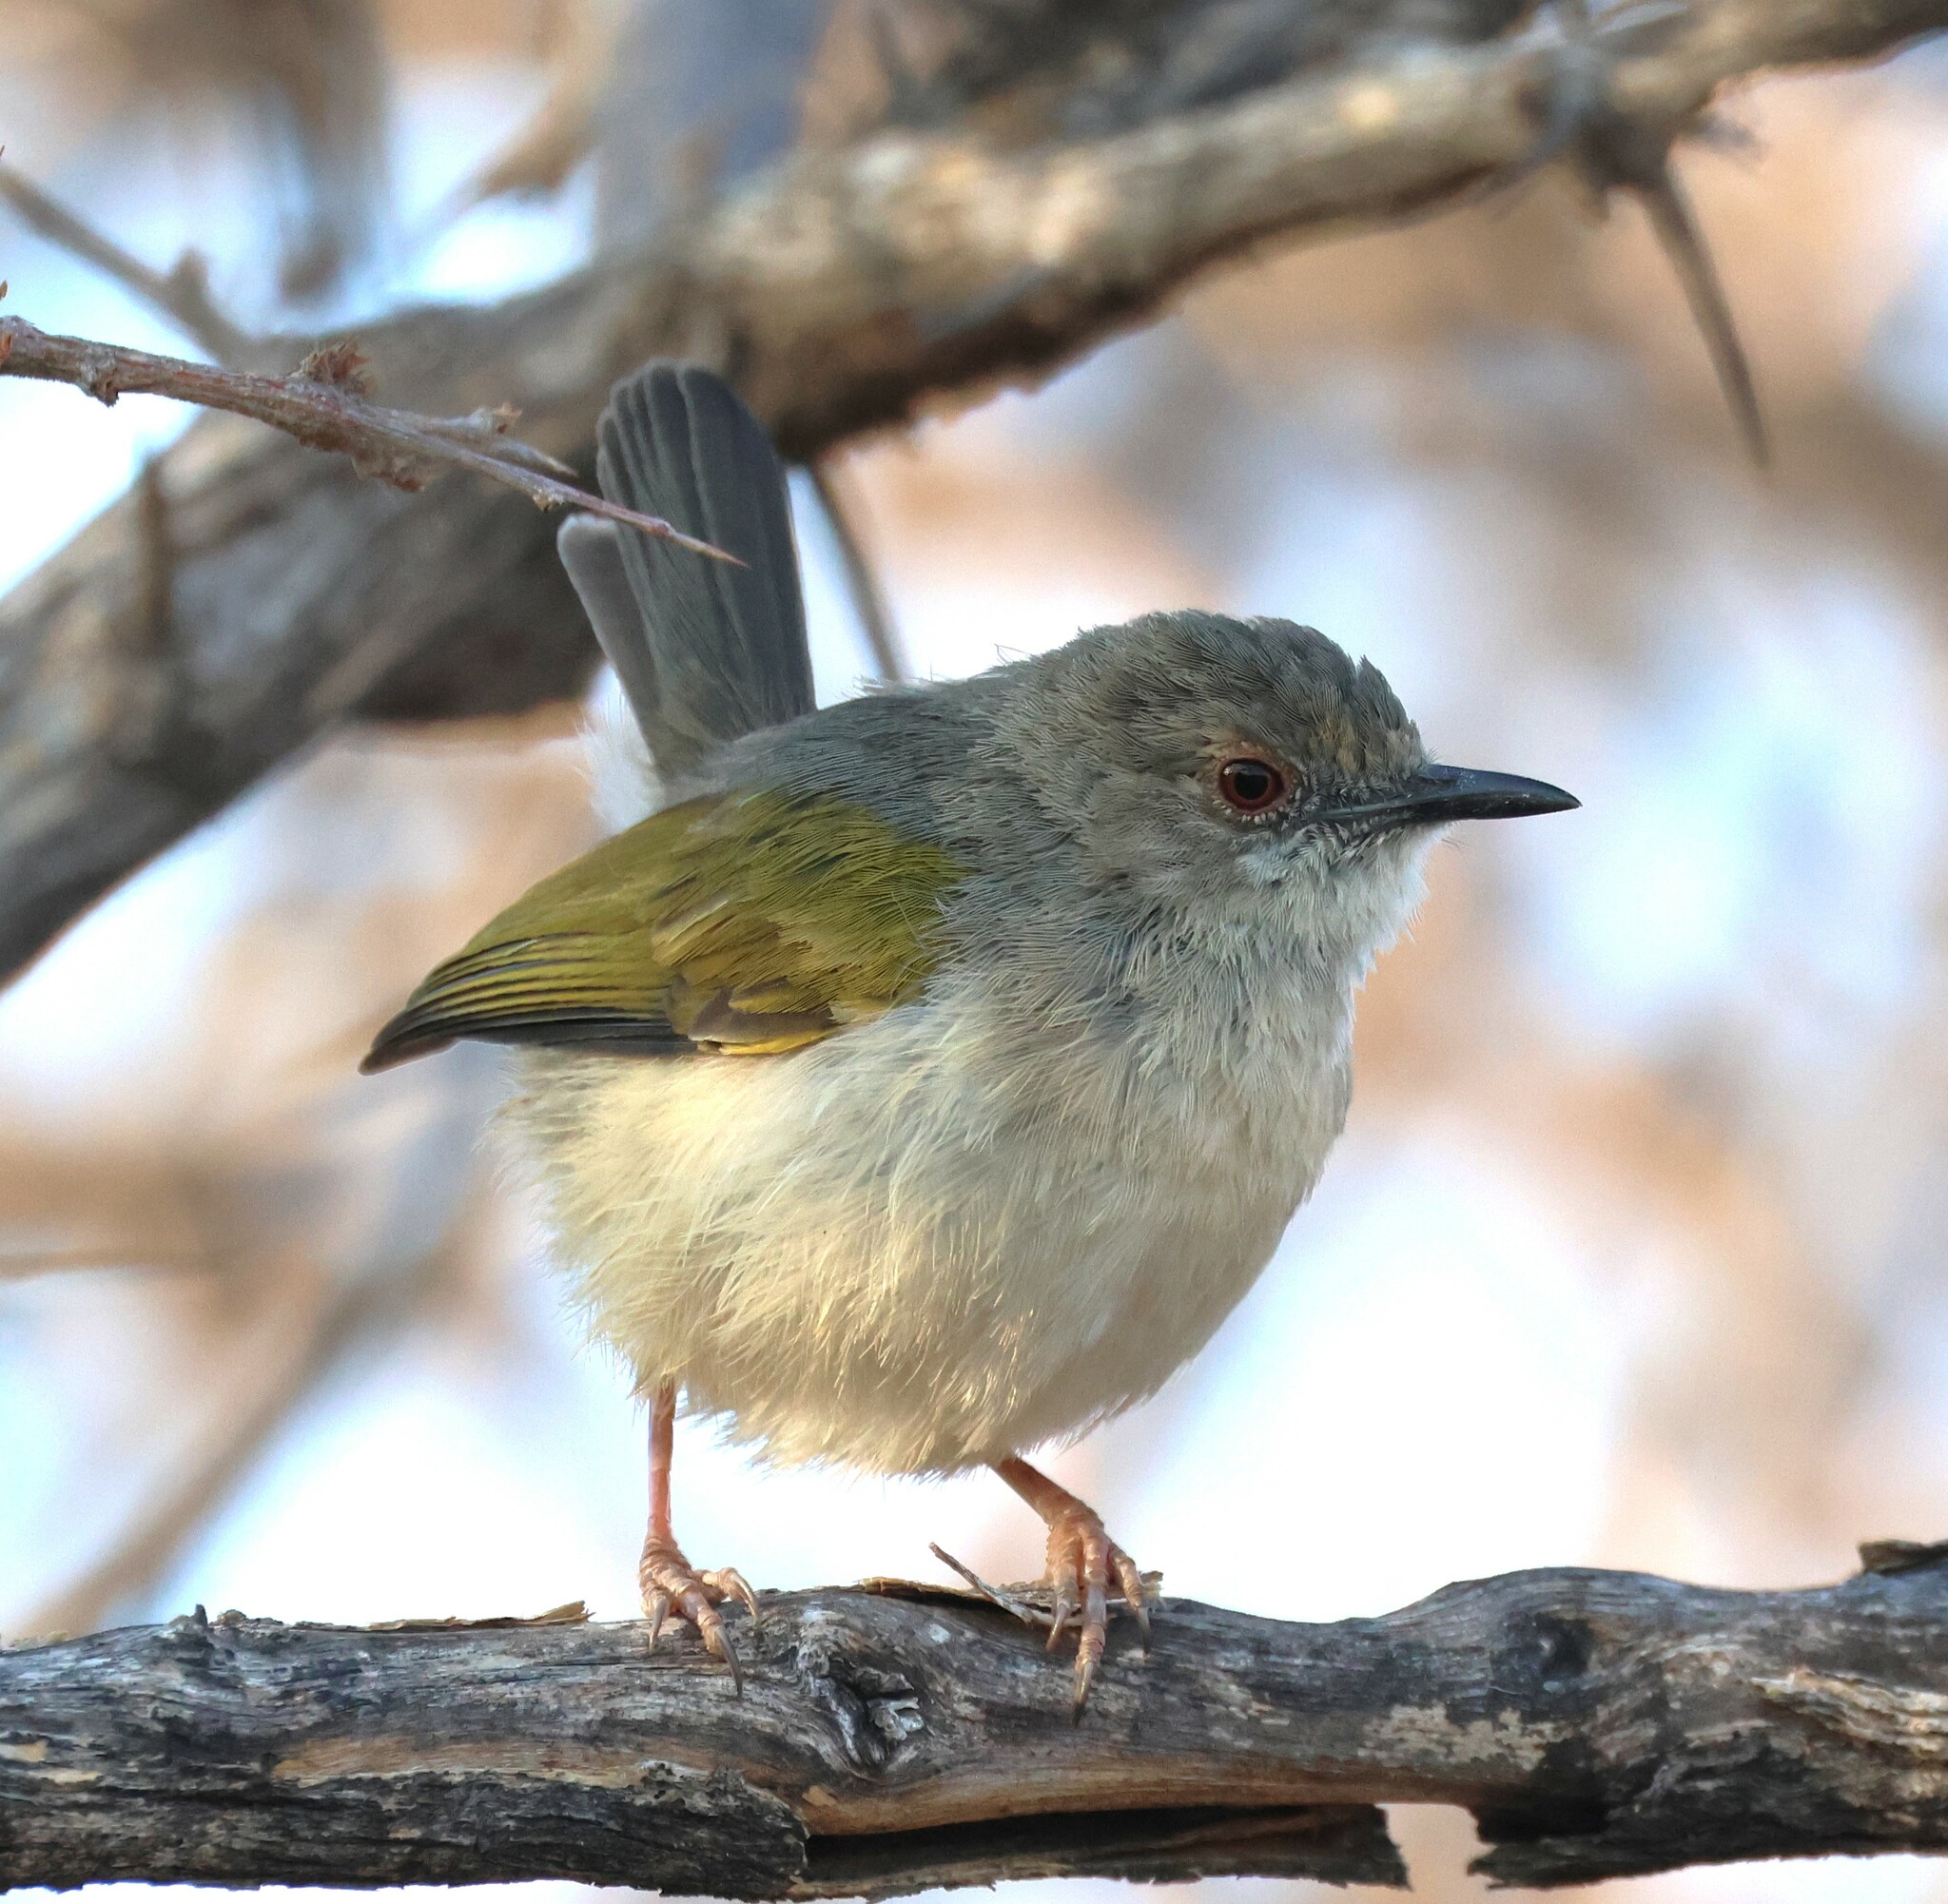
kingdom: Animalia
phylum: Chordata
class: Aves
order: Passeriformes
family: Cisticolidae
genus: Camaroptera
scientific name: Camaroptera brachyura
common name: Green-backed camaroptera
